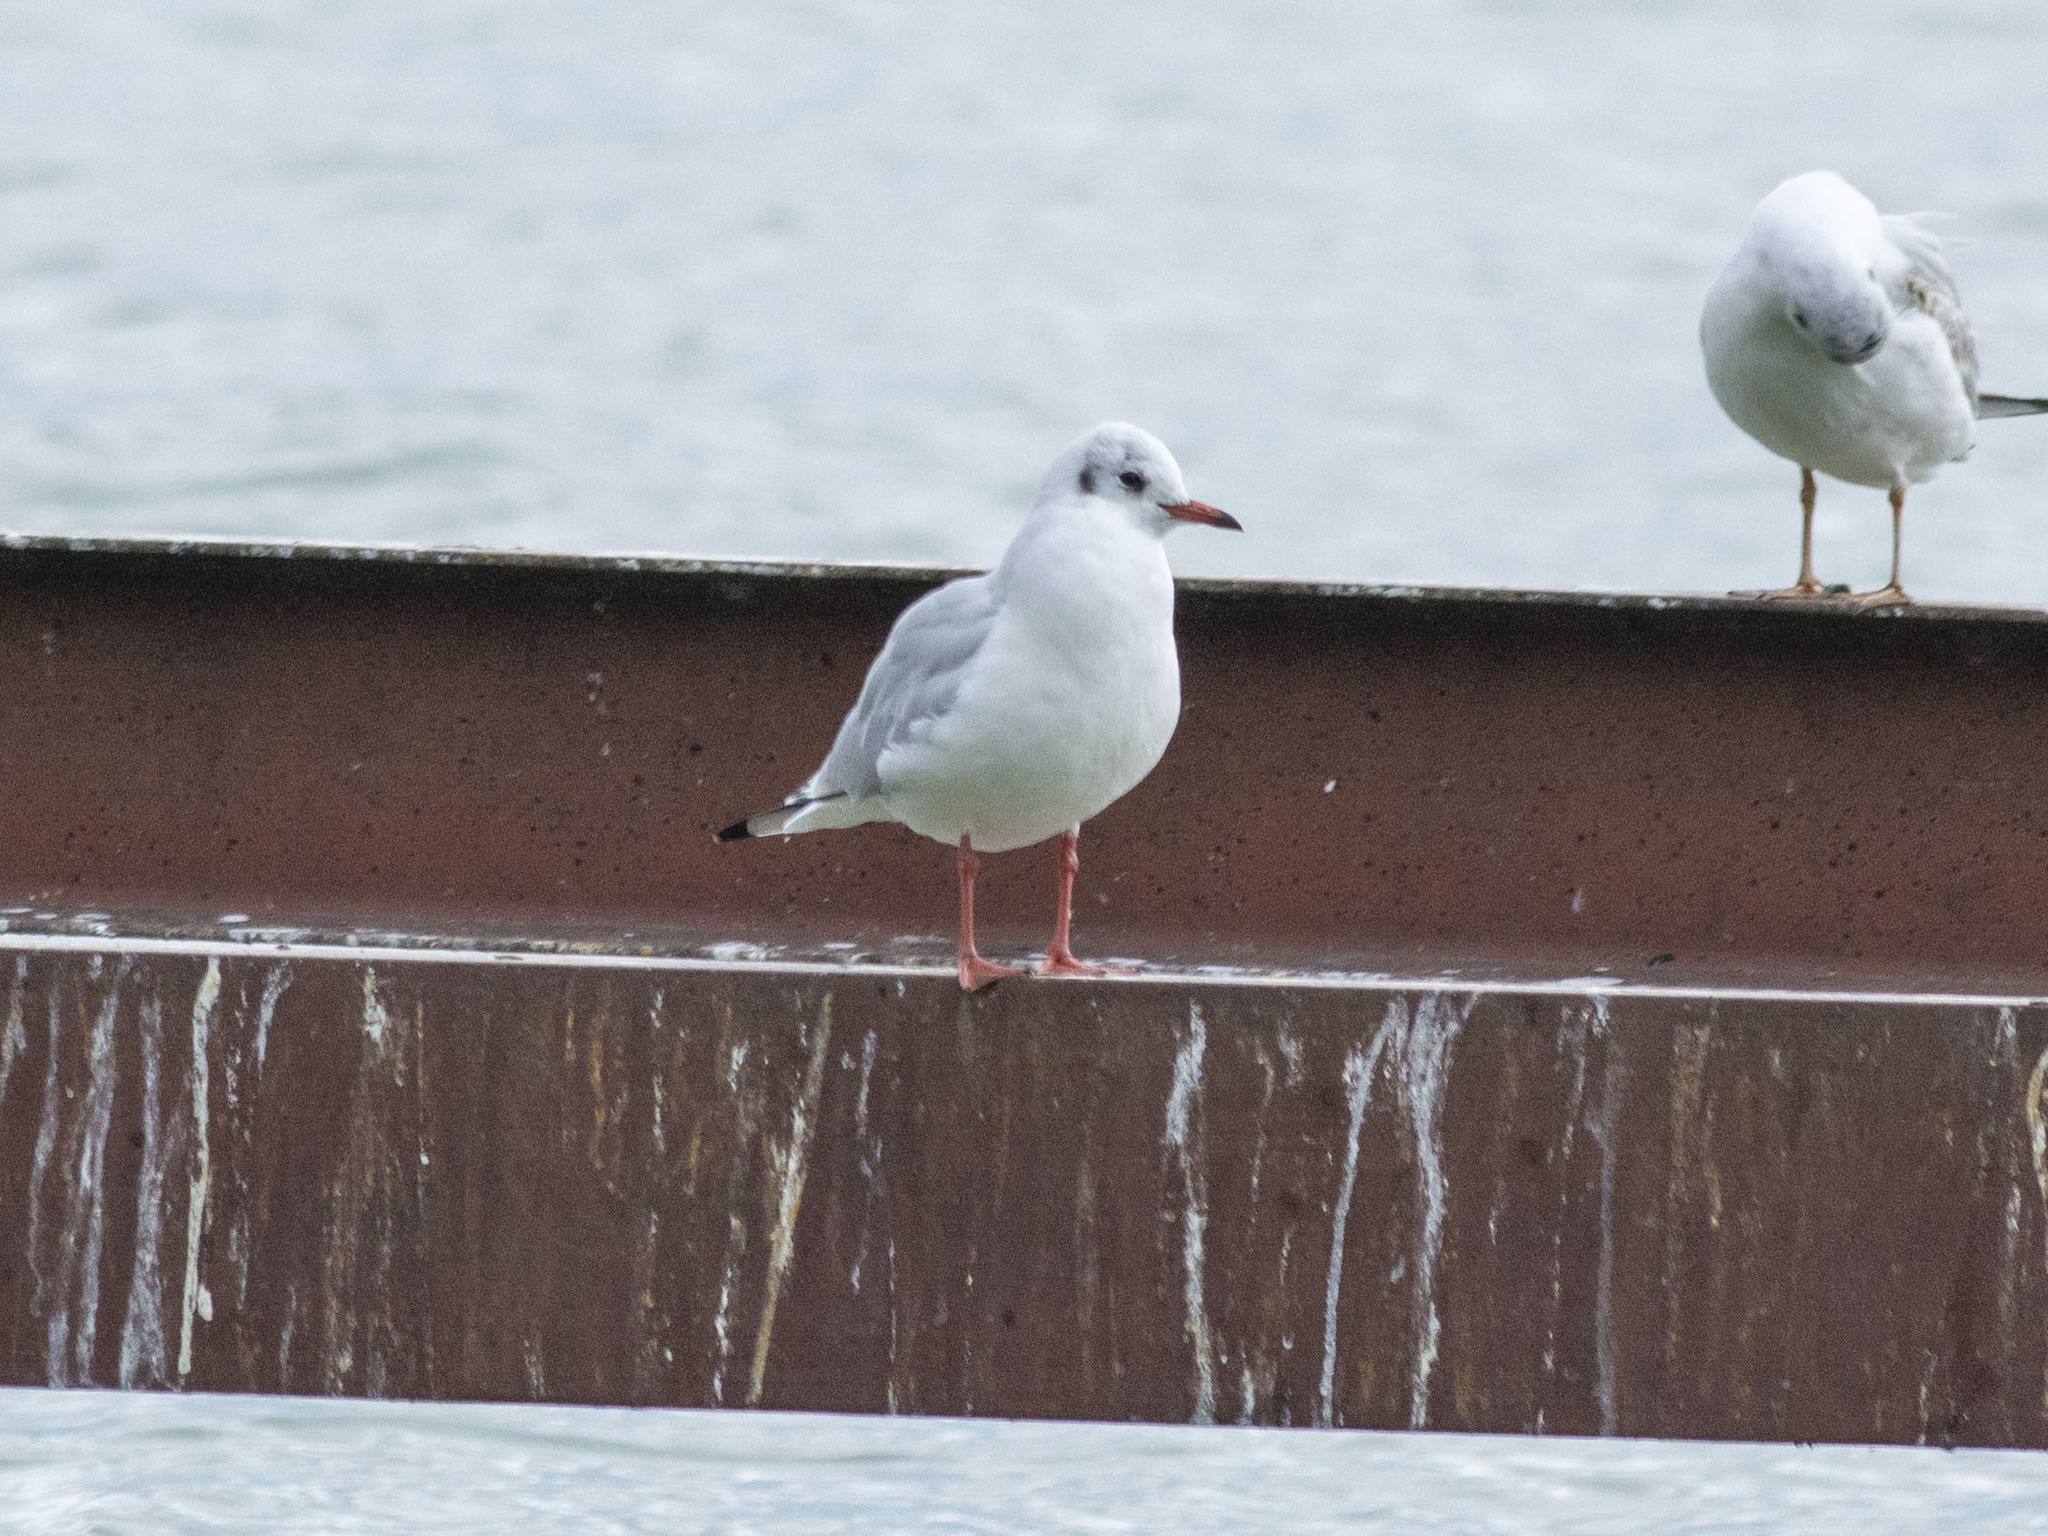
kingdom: Animalia
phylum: Chordata
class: Aves
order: Charadriiformes
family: Laridae
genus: Chroicocephalus
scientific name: Chroicocephalus ridibundus
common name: Black-headed gull
